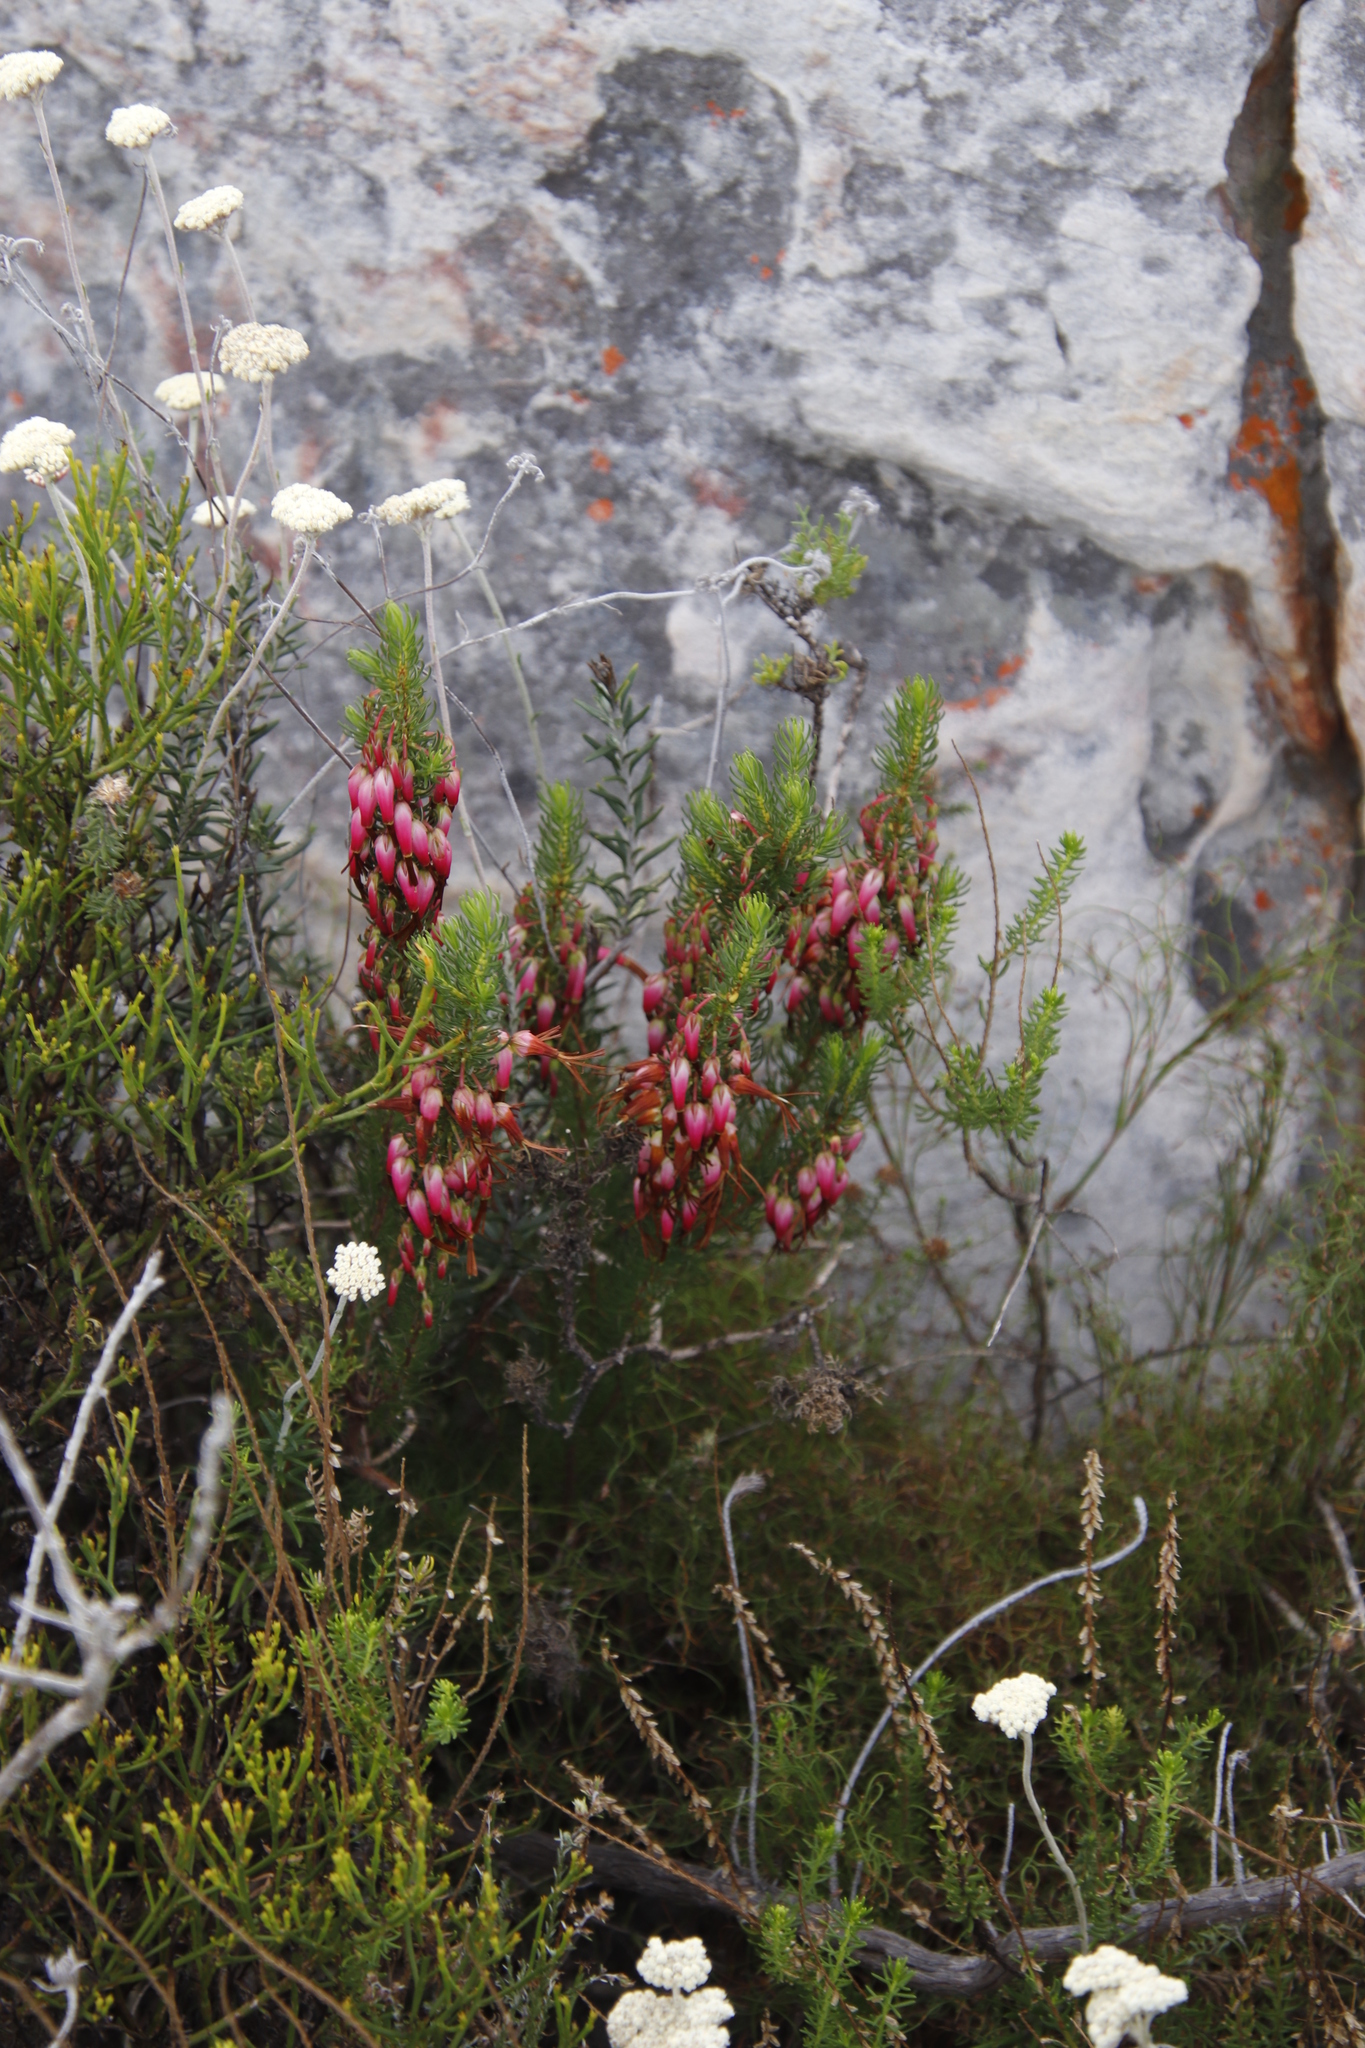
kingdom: Plantae
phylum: Tracheophyta
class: Magnoliopsida
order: Ericales
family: Ericaceae
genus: Erica
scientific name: Erica plukenetii
